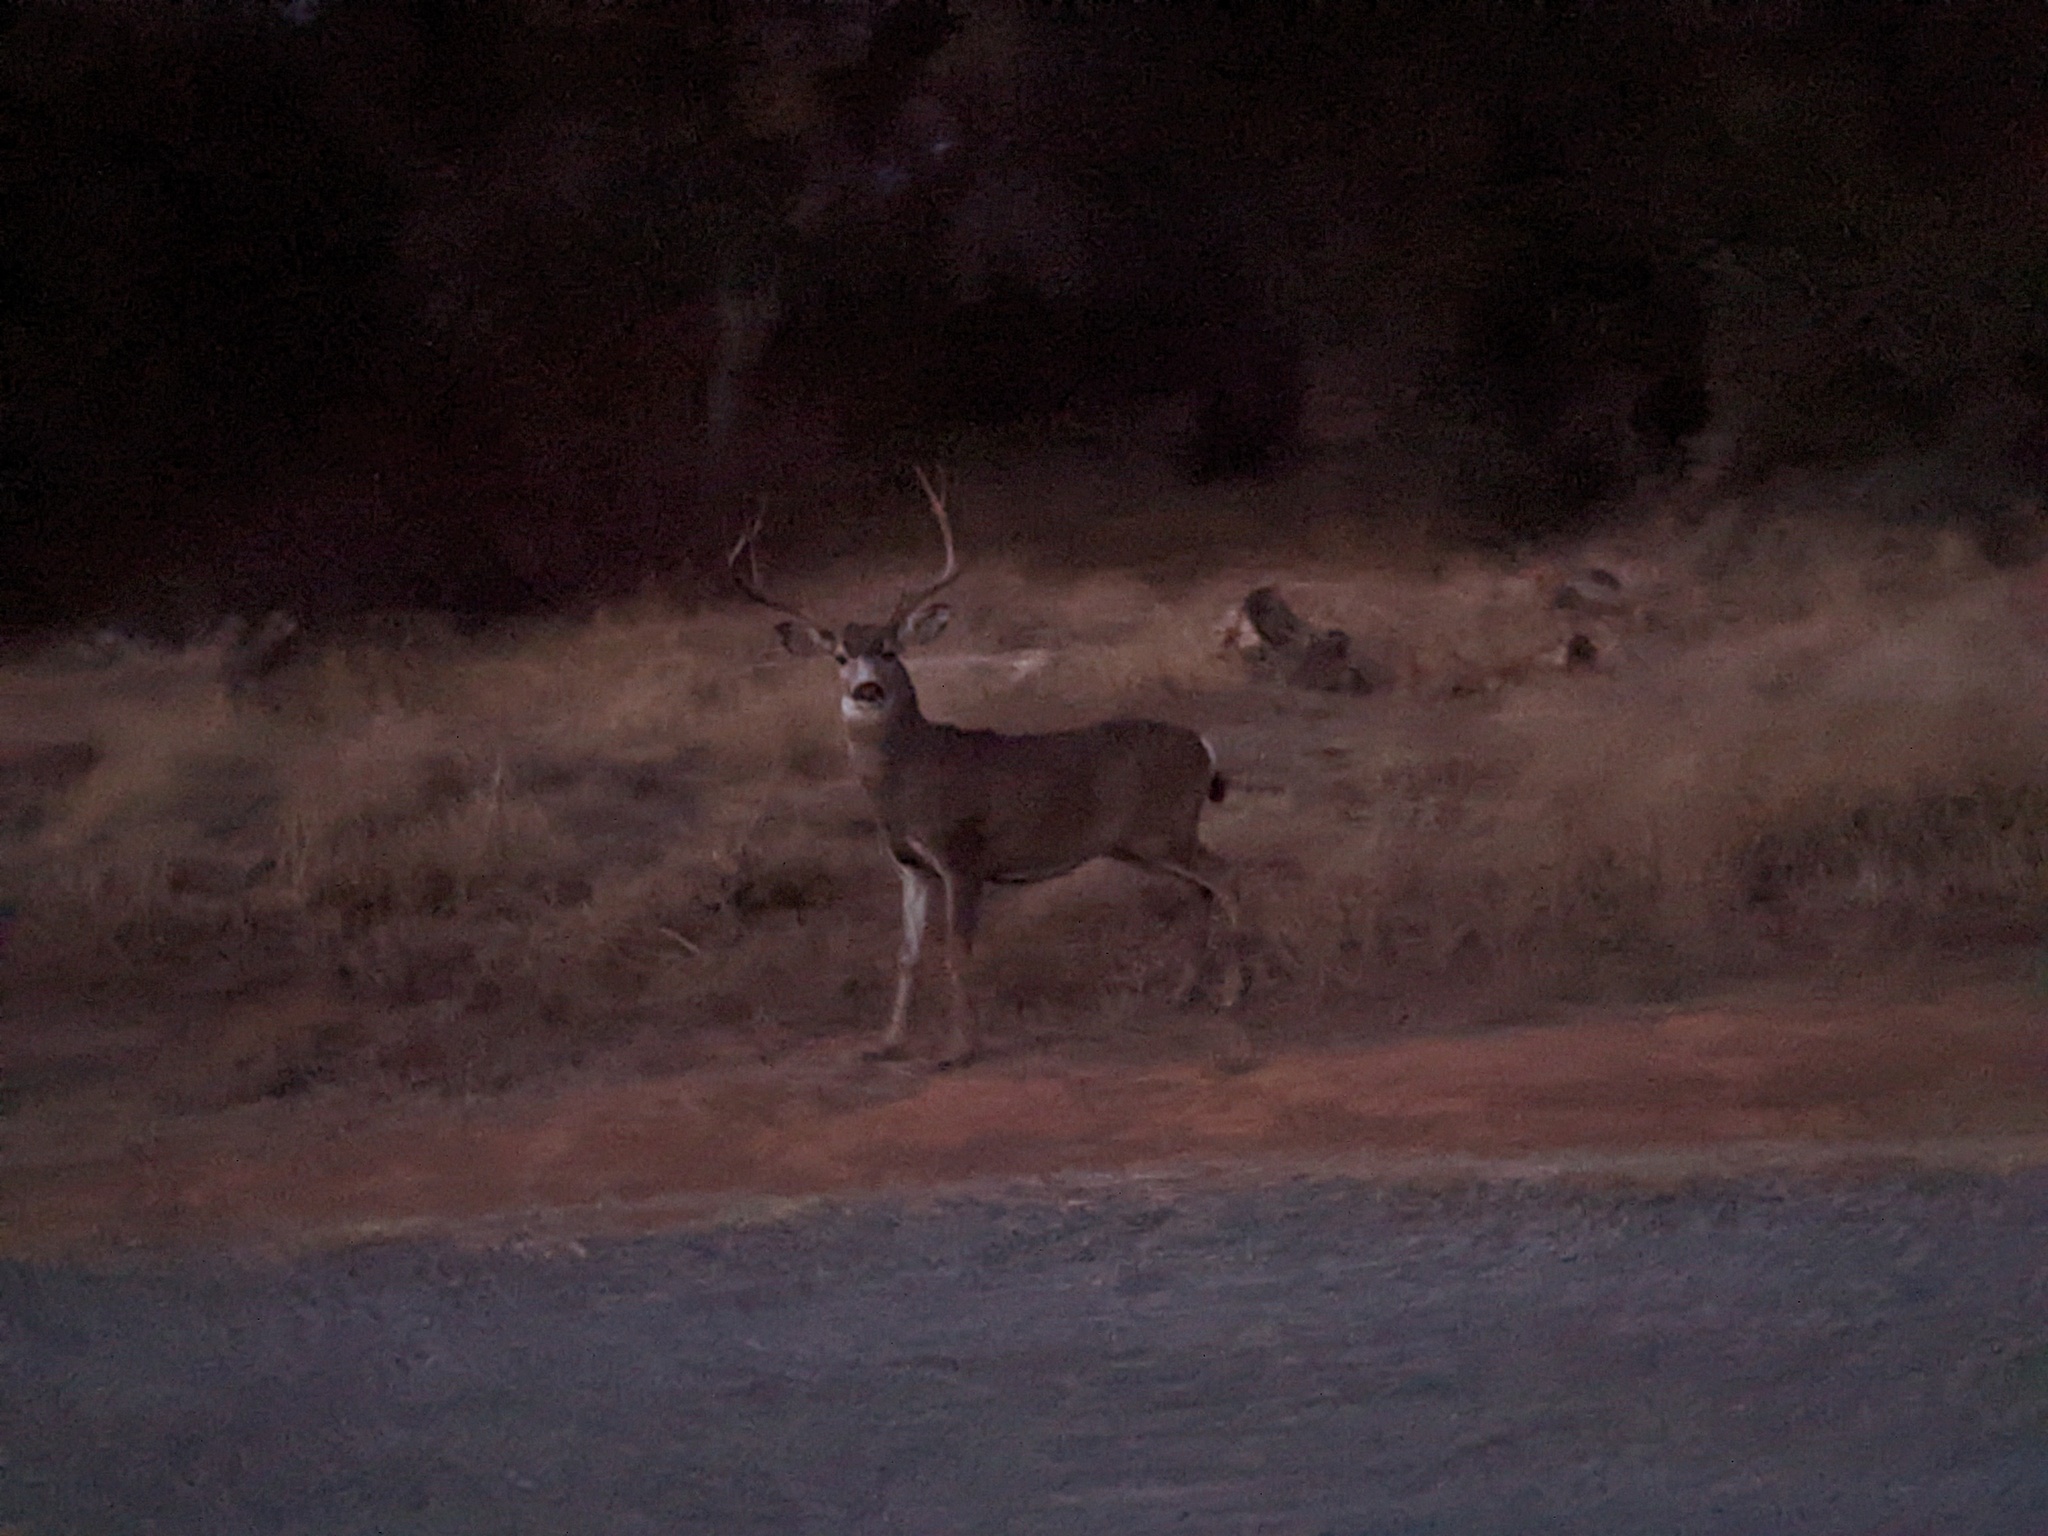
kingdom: Animalia
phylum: Chordata
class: Mammalia
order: Artiodactyla
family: Cervidae
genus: Odocoileus
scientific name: Odocoileus hemionus
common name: Mule deer
